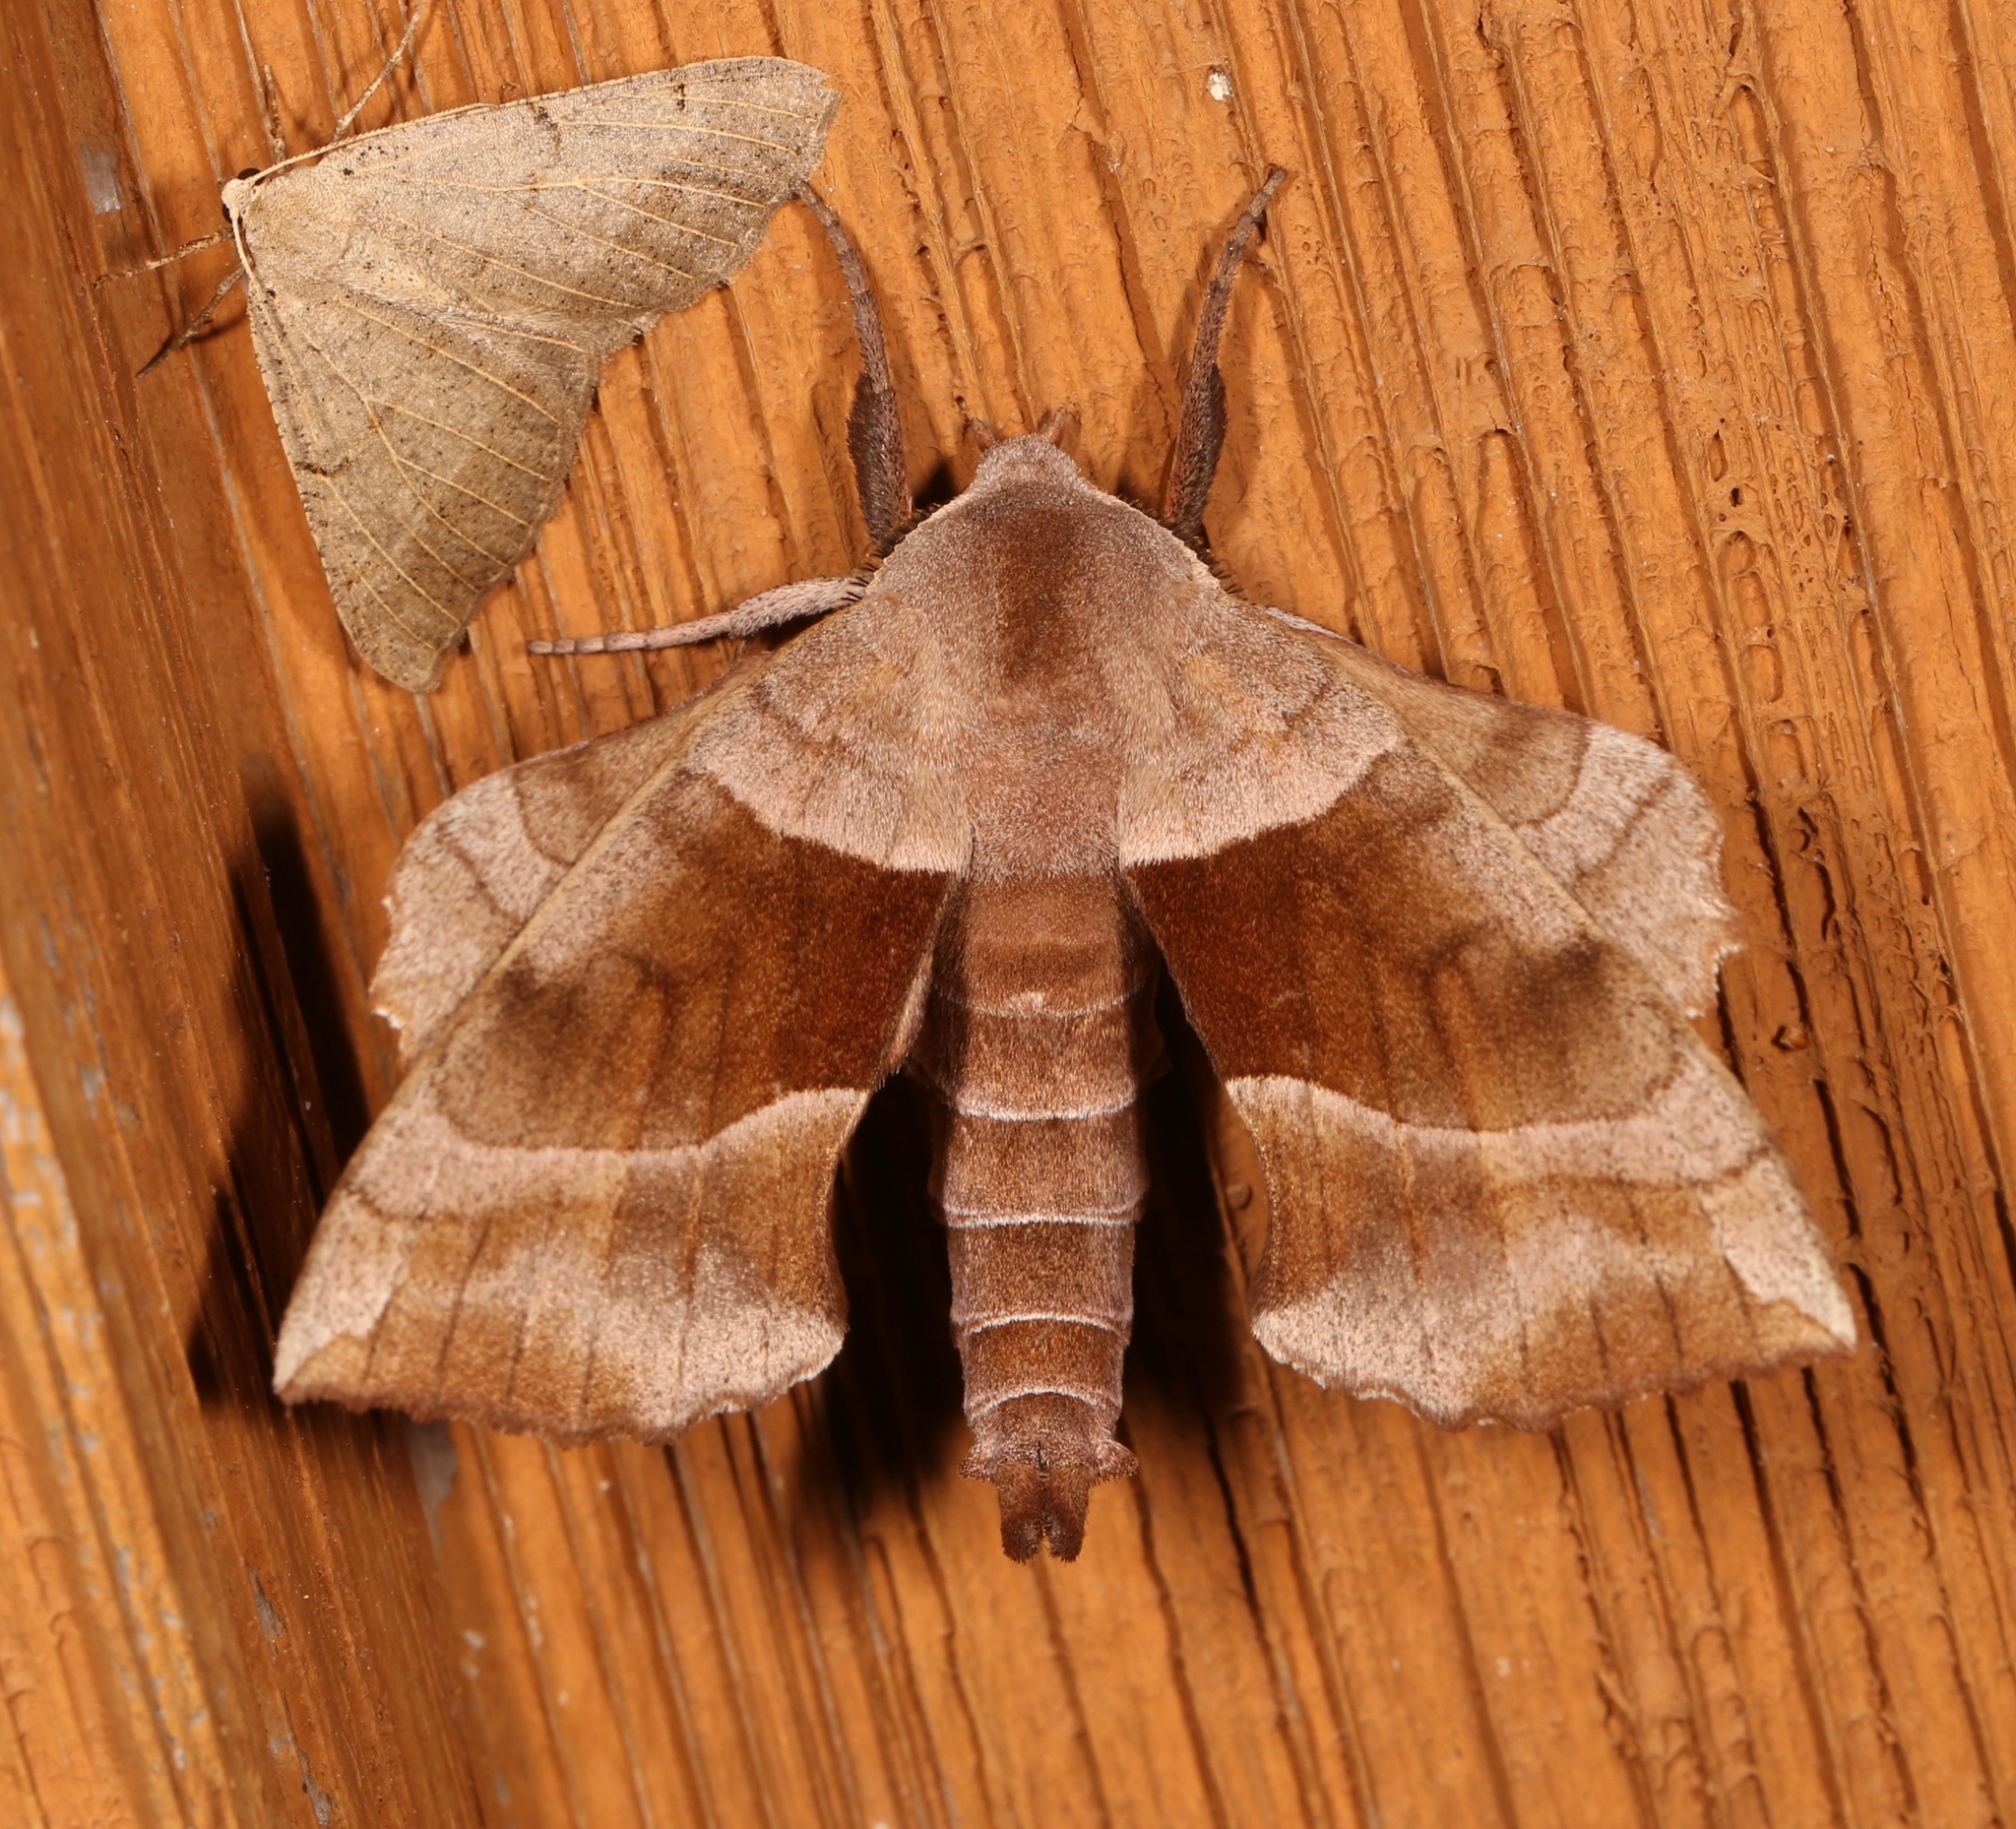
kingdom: Animalia
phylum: Arthropoda
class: Insecta
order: Lepidoptera
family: Sphingidae
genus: Amorpha
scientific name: Amorpha juglandis
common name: Walnut sphinx
